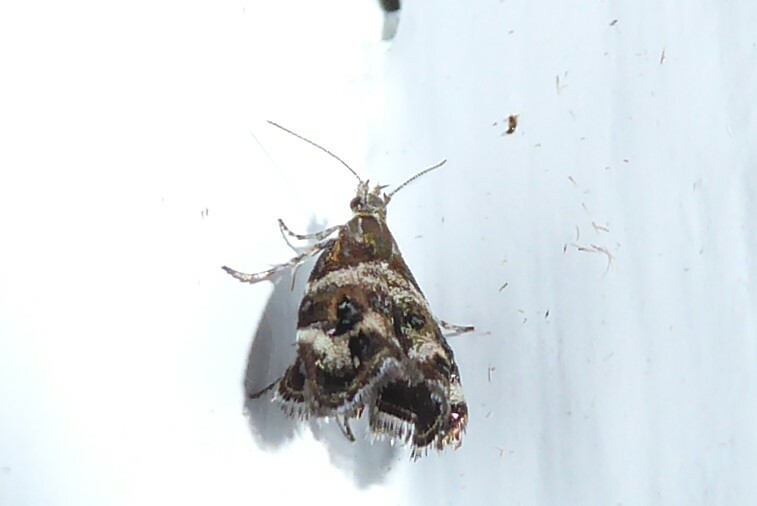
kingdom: Animalia
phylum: Arthropoda
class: Insecta
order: Lepidoptera
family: Choreutidae
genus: Tebenna
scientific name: Tebenna micalis
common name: Vagrant twitcher
